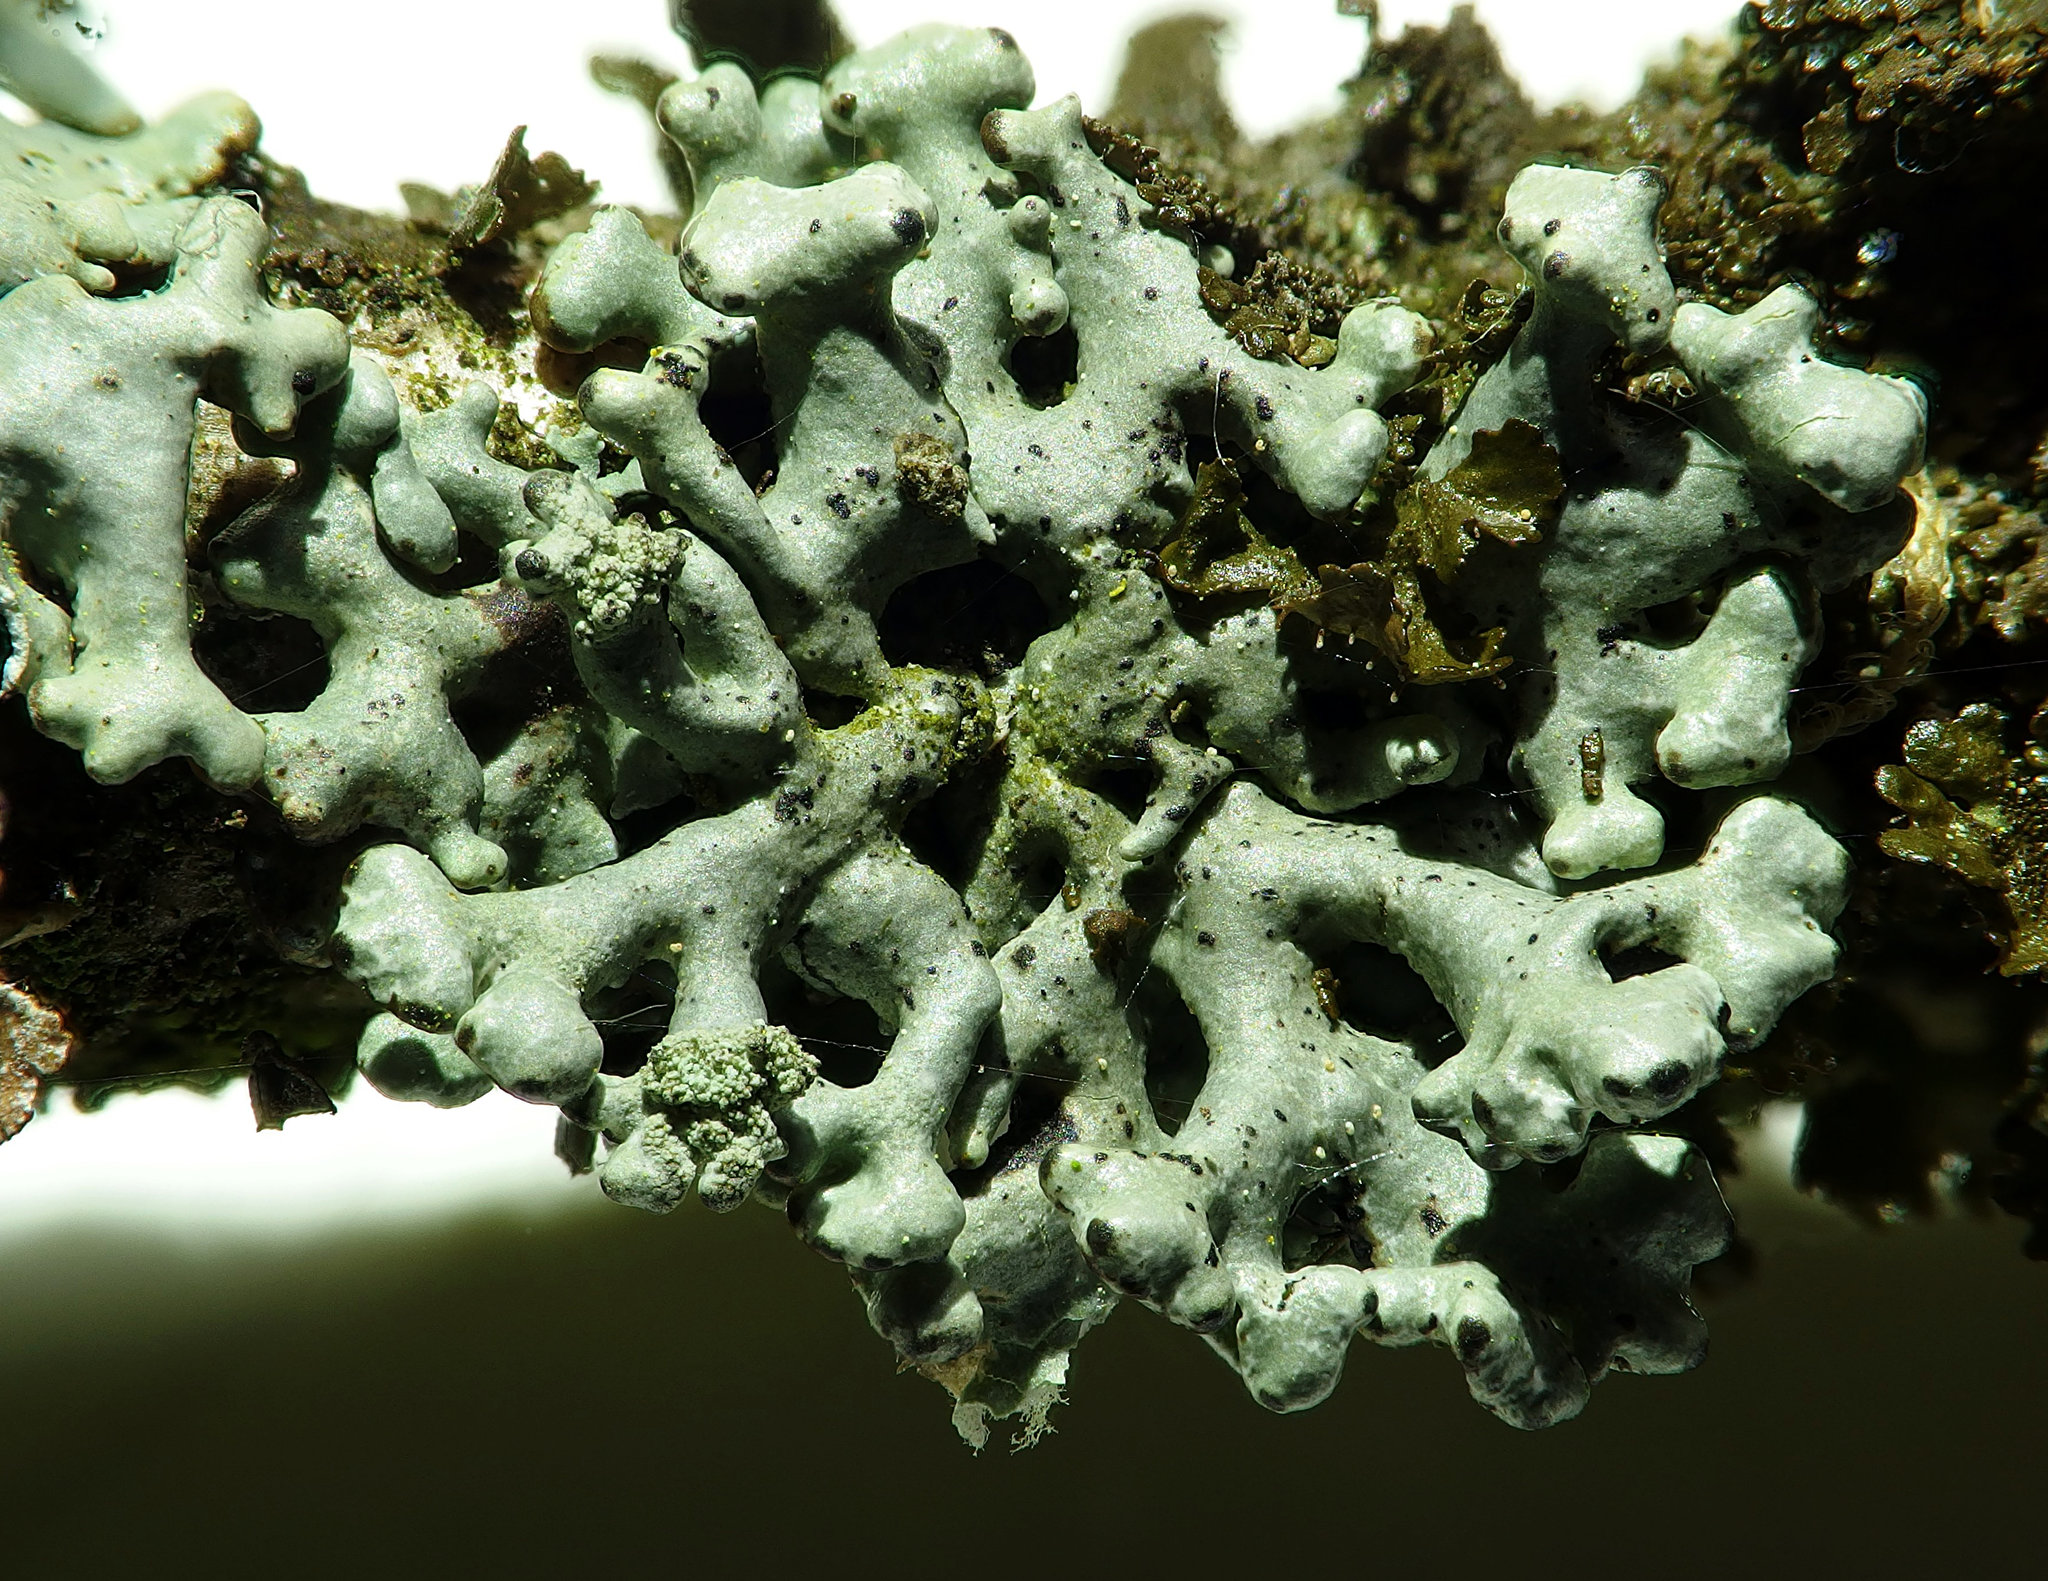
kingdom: Fungi
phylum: Ascomycota
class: Lecanoromycetes
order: Lecanorales
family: Parmeliaceae
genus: Hypogymnia
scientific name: Hypogymnia tubulosa
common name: Powder-headed tube lichen
